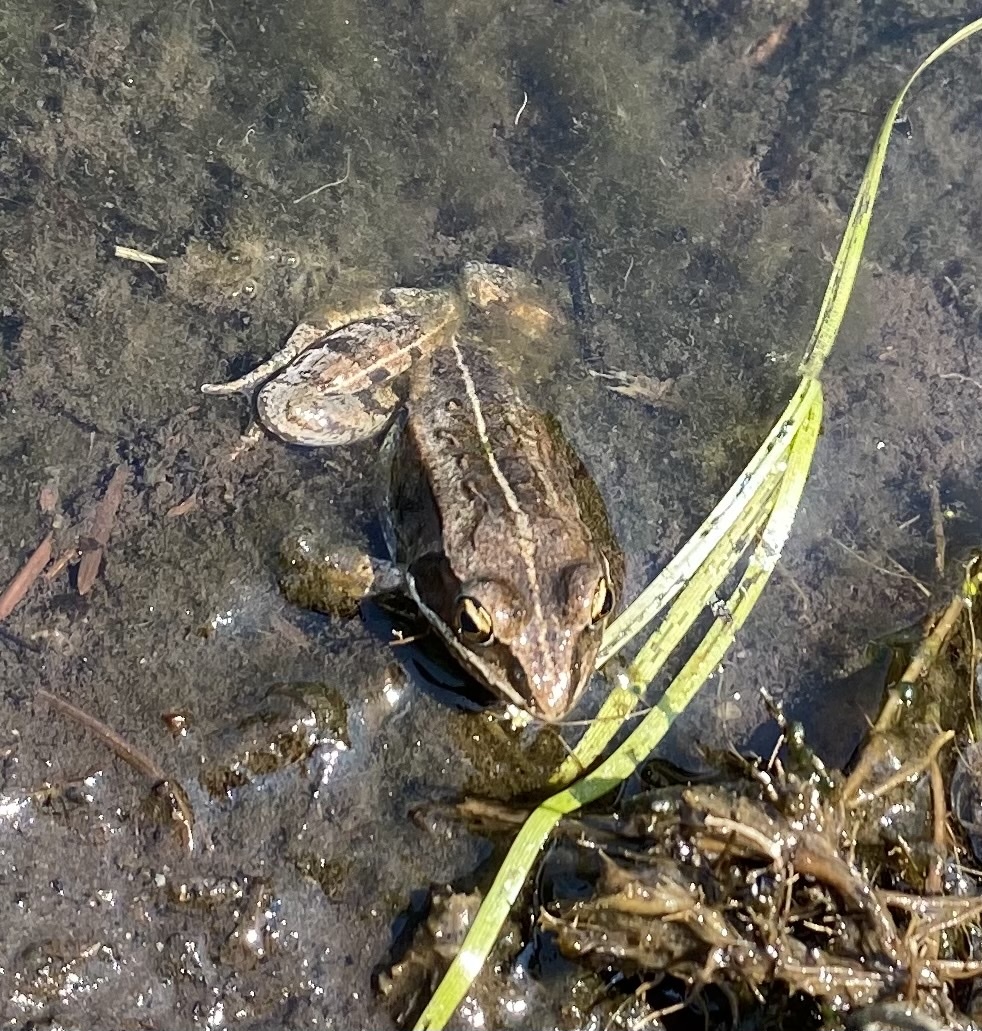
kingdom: Animalia
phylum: Chordata
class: Amphibia
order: Anura
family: Ranidae
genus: Lithobates
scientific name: Lithobates sylvaticus
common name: Wood frog
